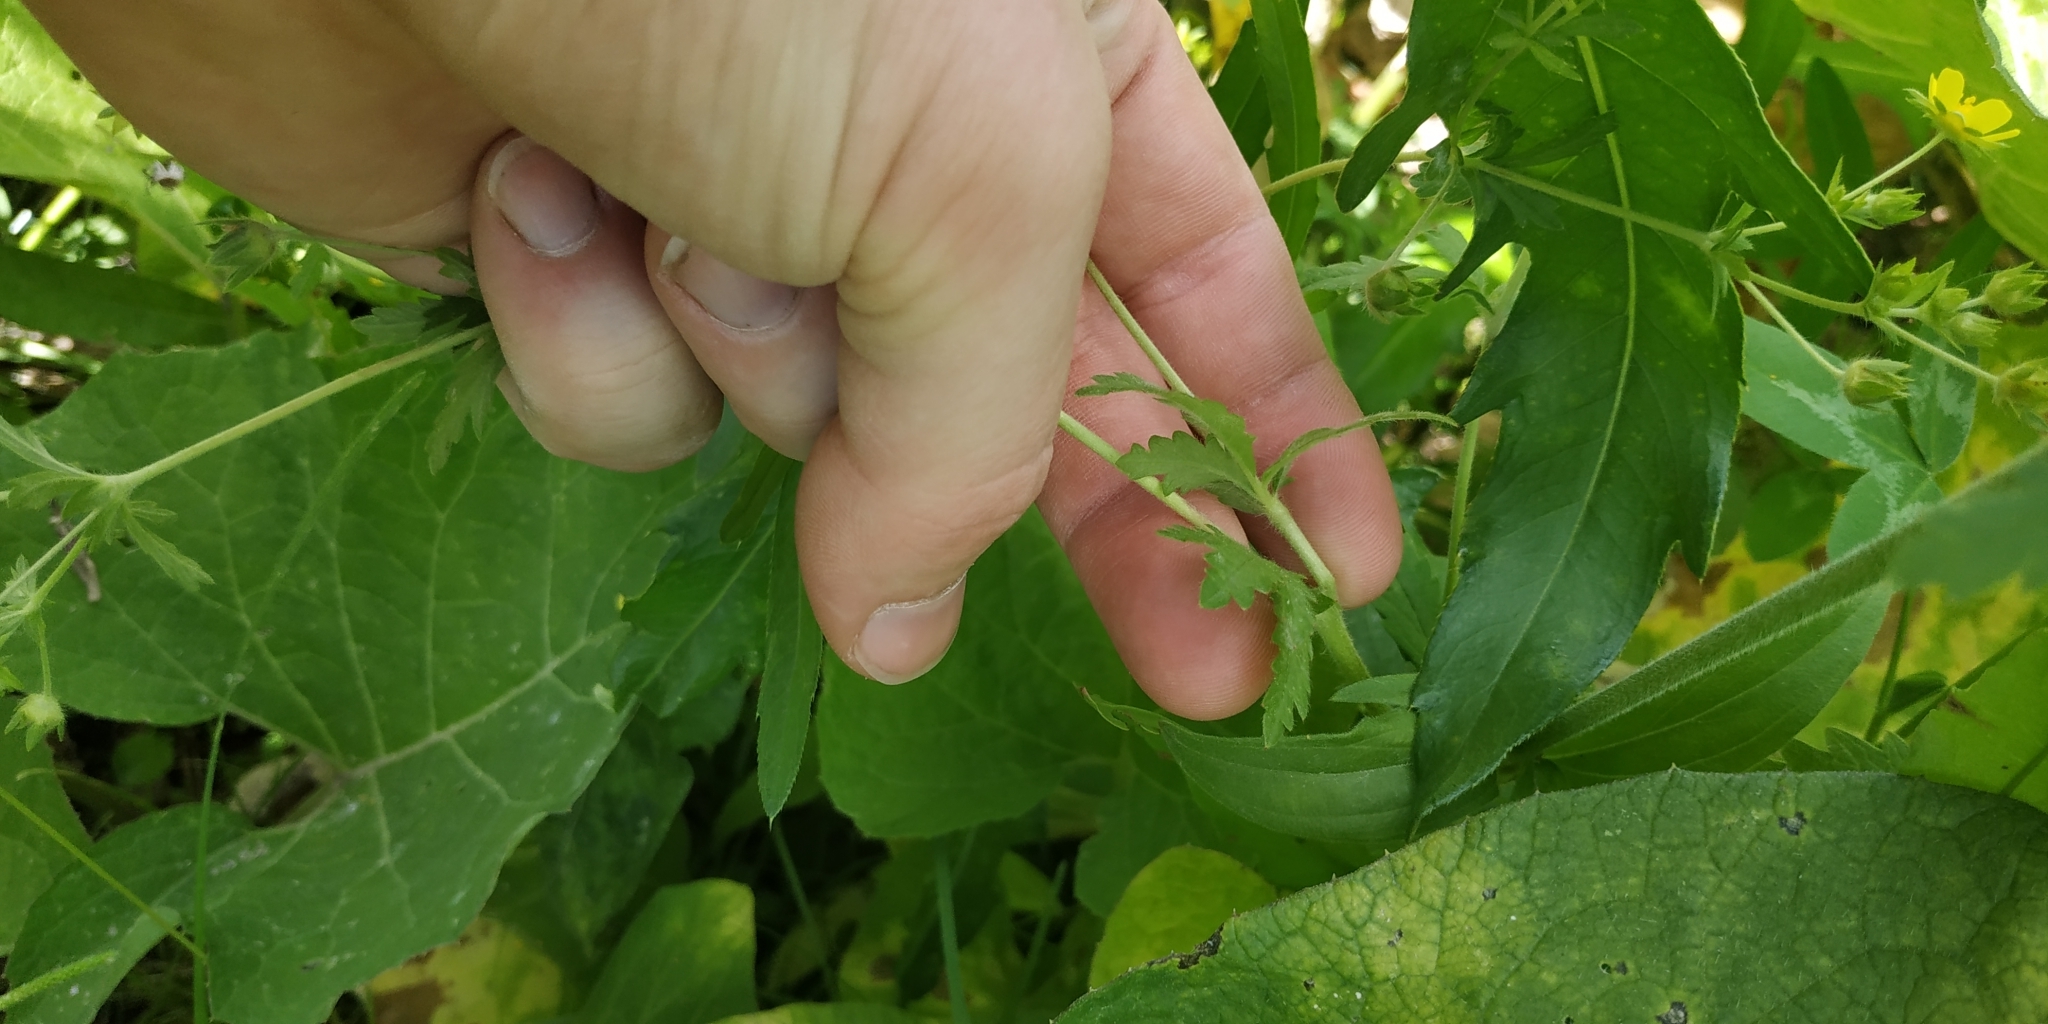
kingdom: Plantae
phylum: Tracheophyta
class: Magnoliopsida
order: Rosales
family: Rosaceae
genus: Potentilla
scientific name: Potentilla norvegica
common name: Ternate-leaved cinquefoil
